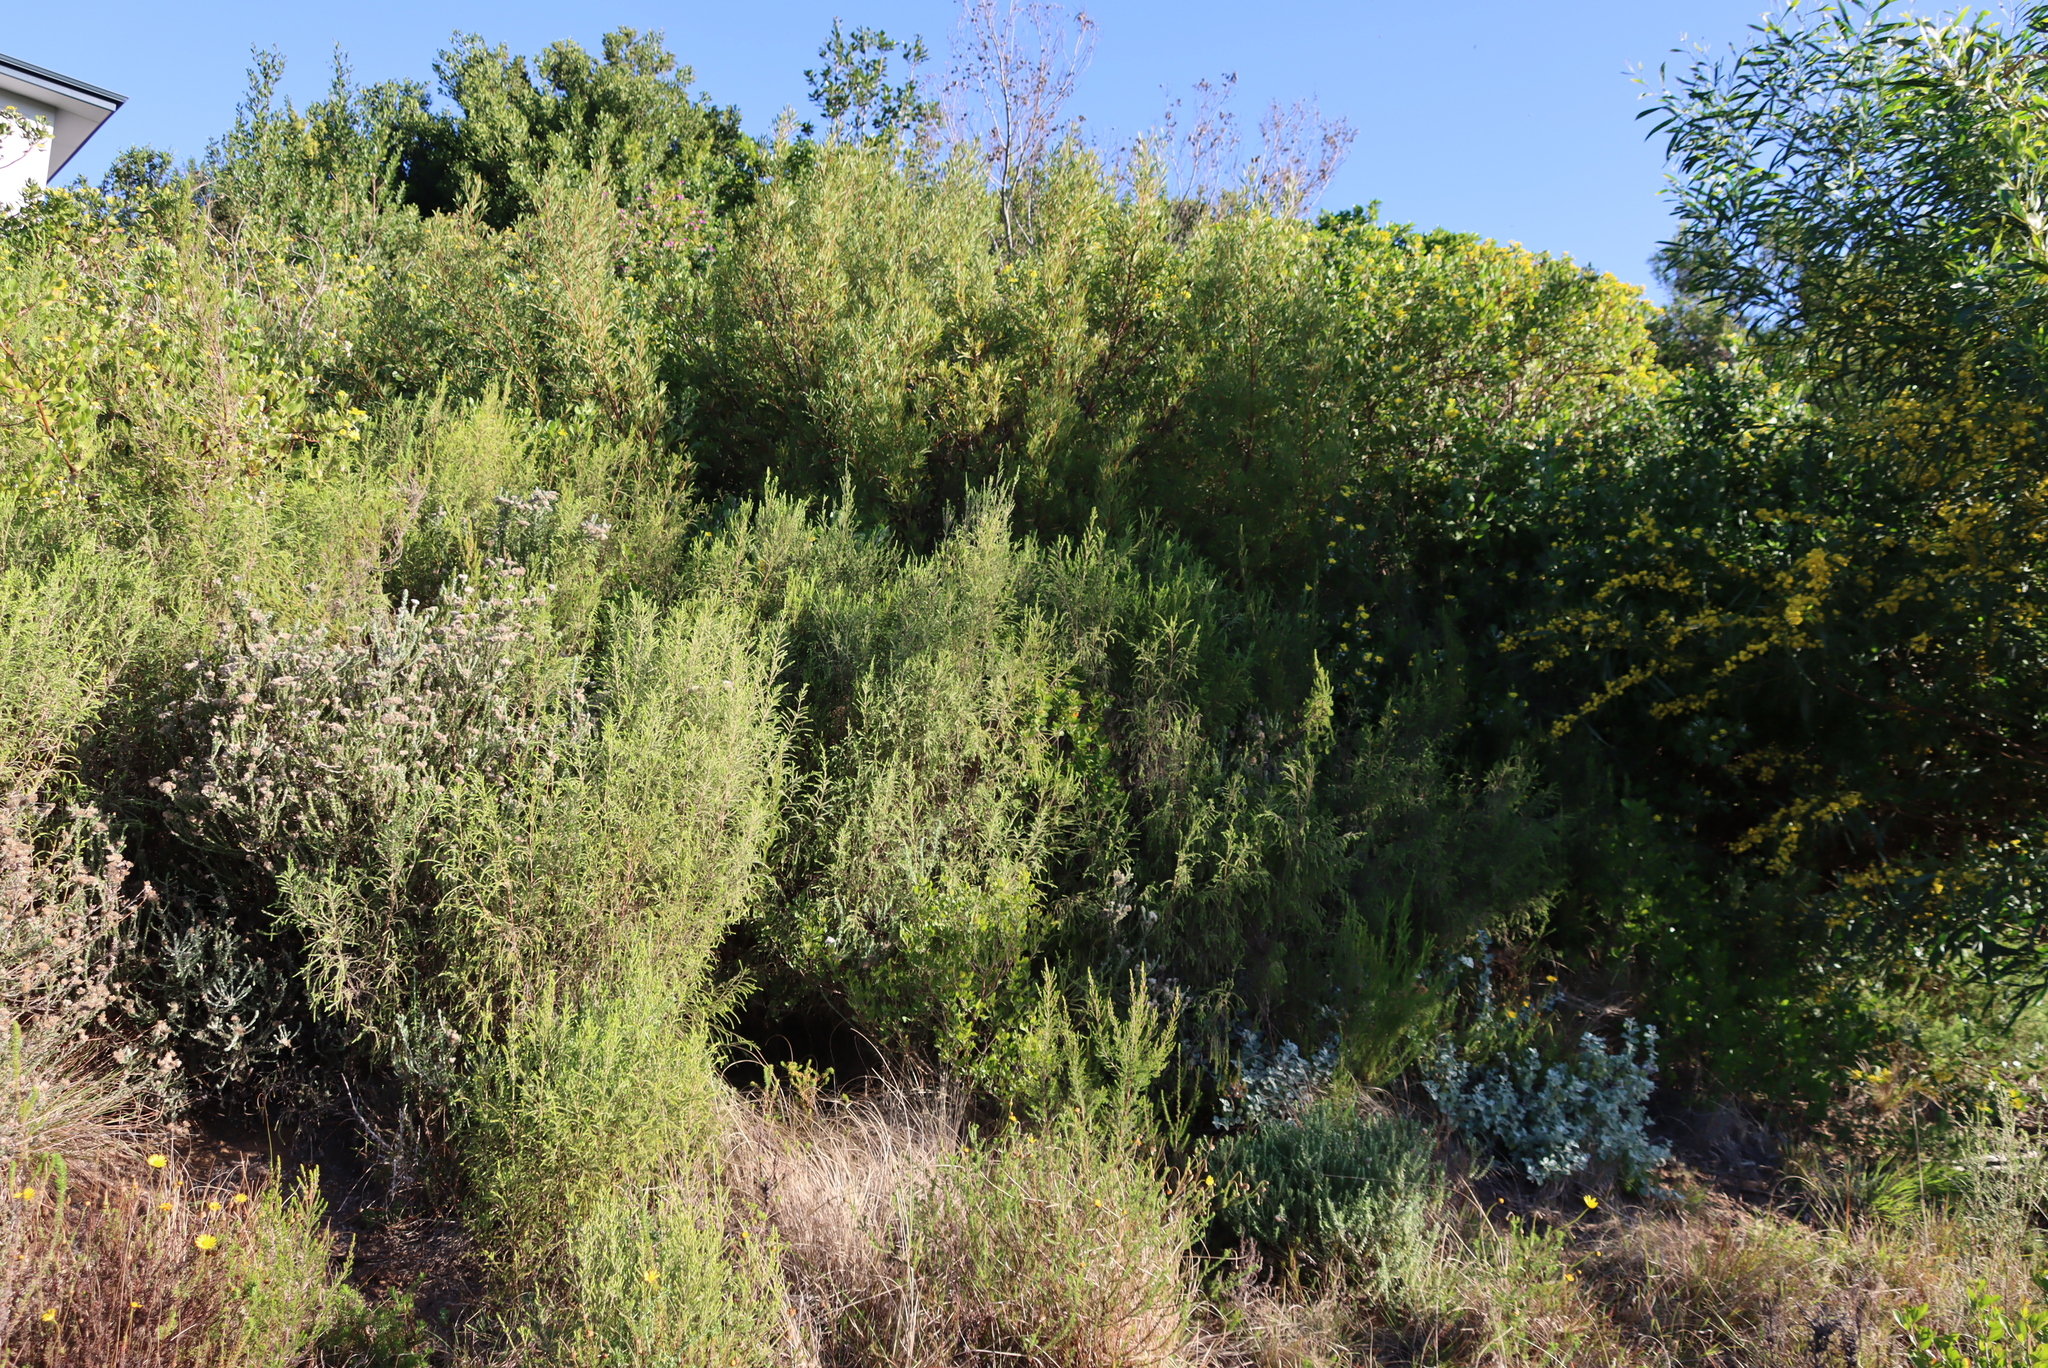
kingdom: Plantae
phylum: Tracheophyta
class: Magnoliopsida
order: Malvales
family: Thymelaeaceae
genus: Passerina
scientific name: Passerina falcifolia
